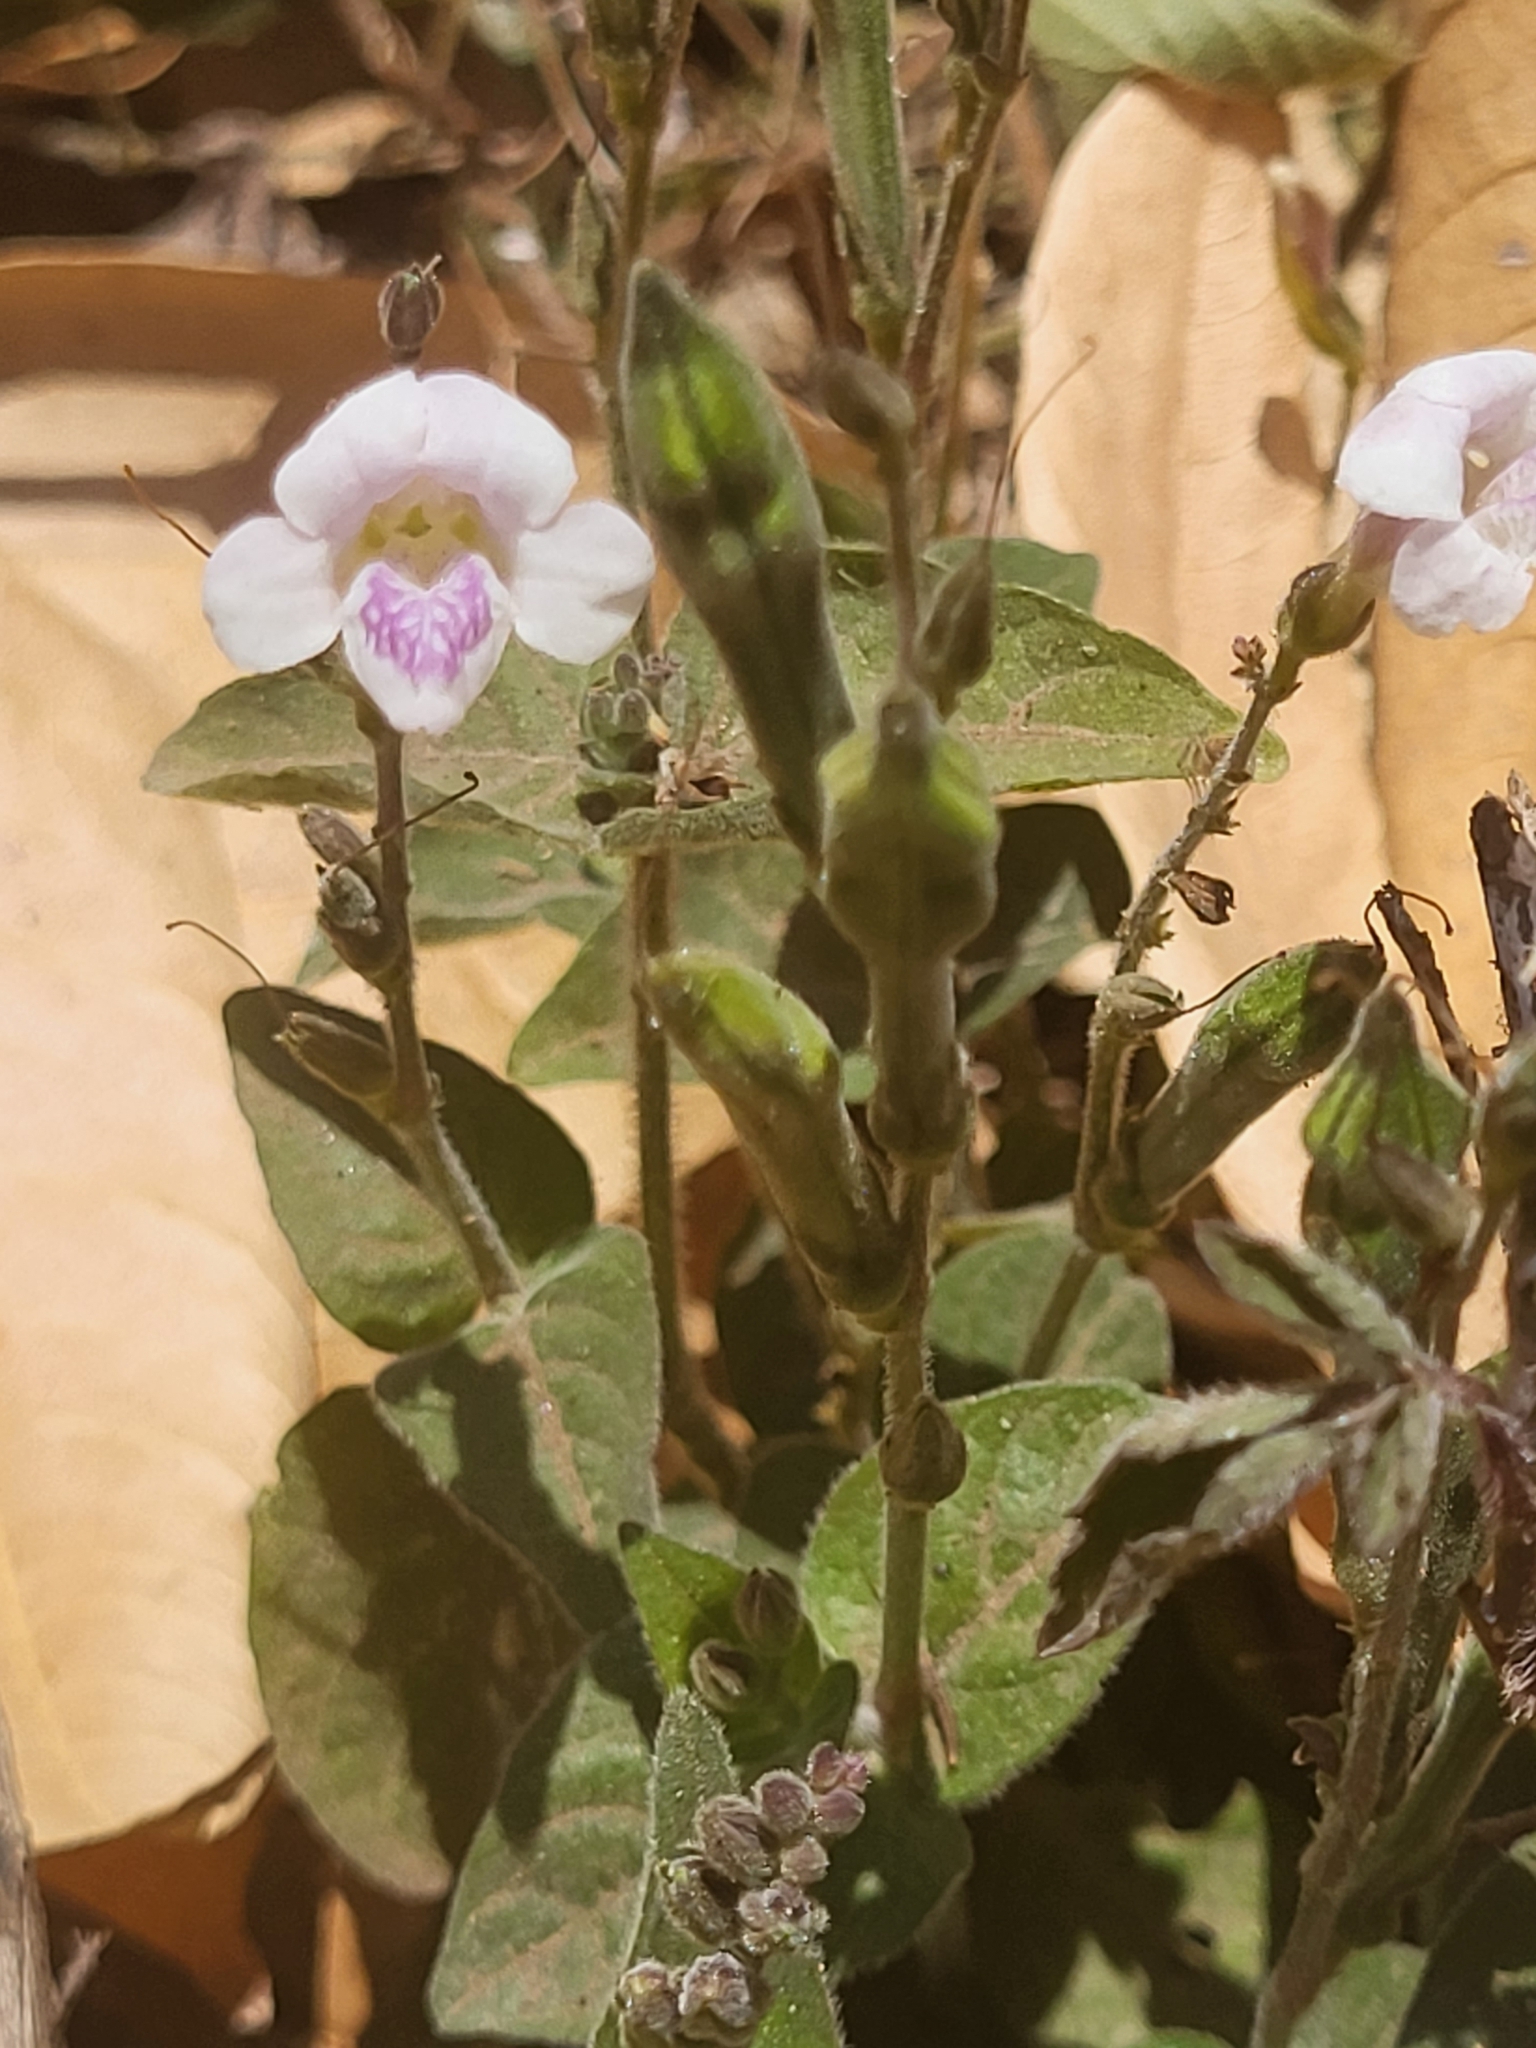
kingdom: Plantae
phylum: Tracheophyta
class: Magnoliopsida
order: Lamiales
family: Acanthaceae
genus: Asystasia
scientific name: Asystasia intrusa
